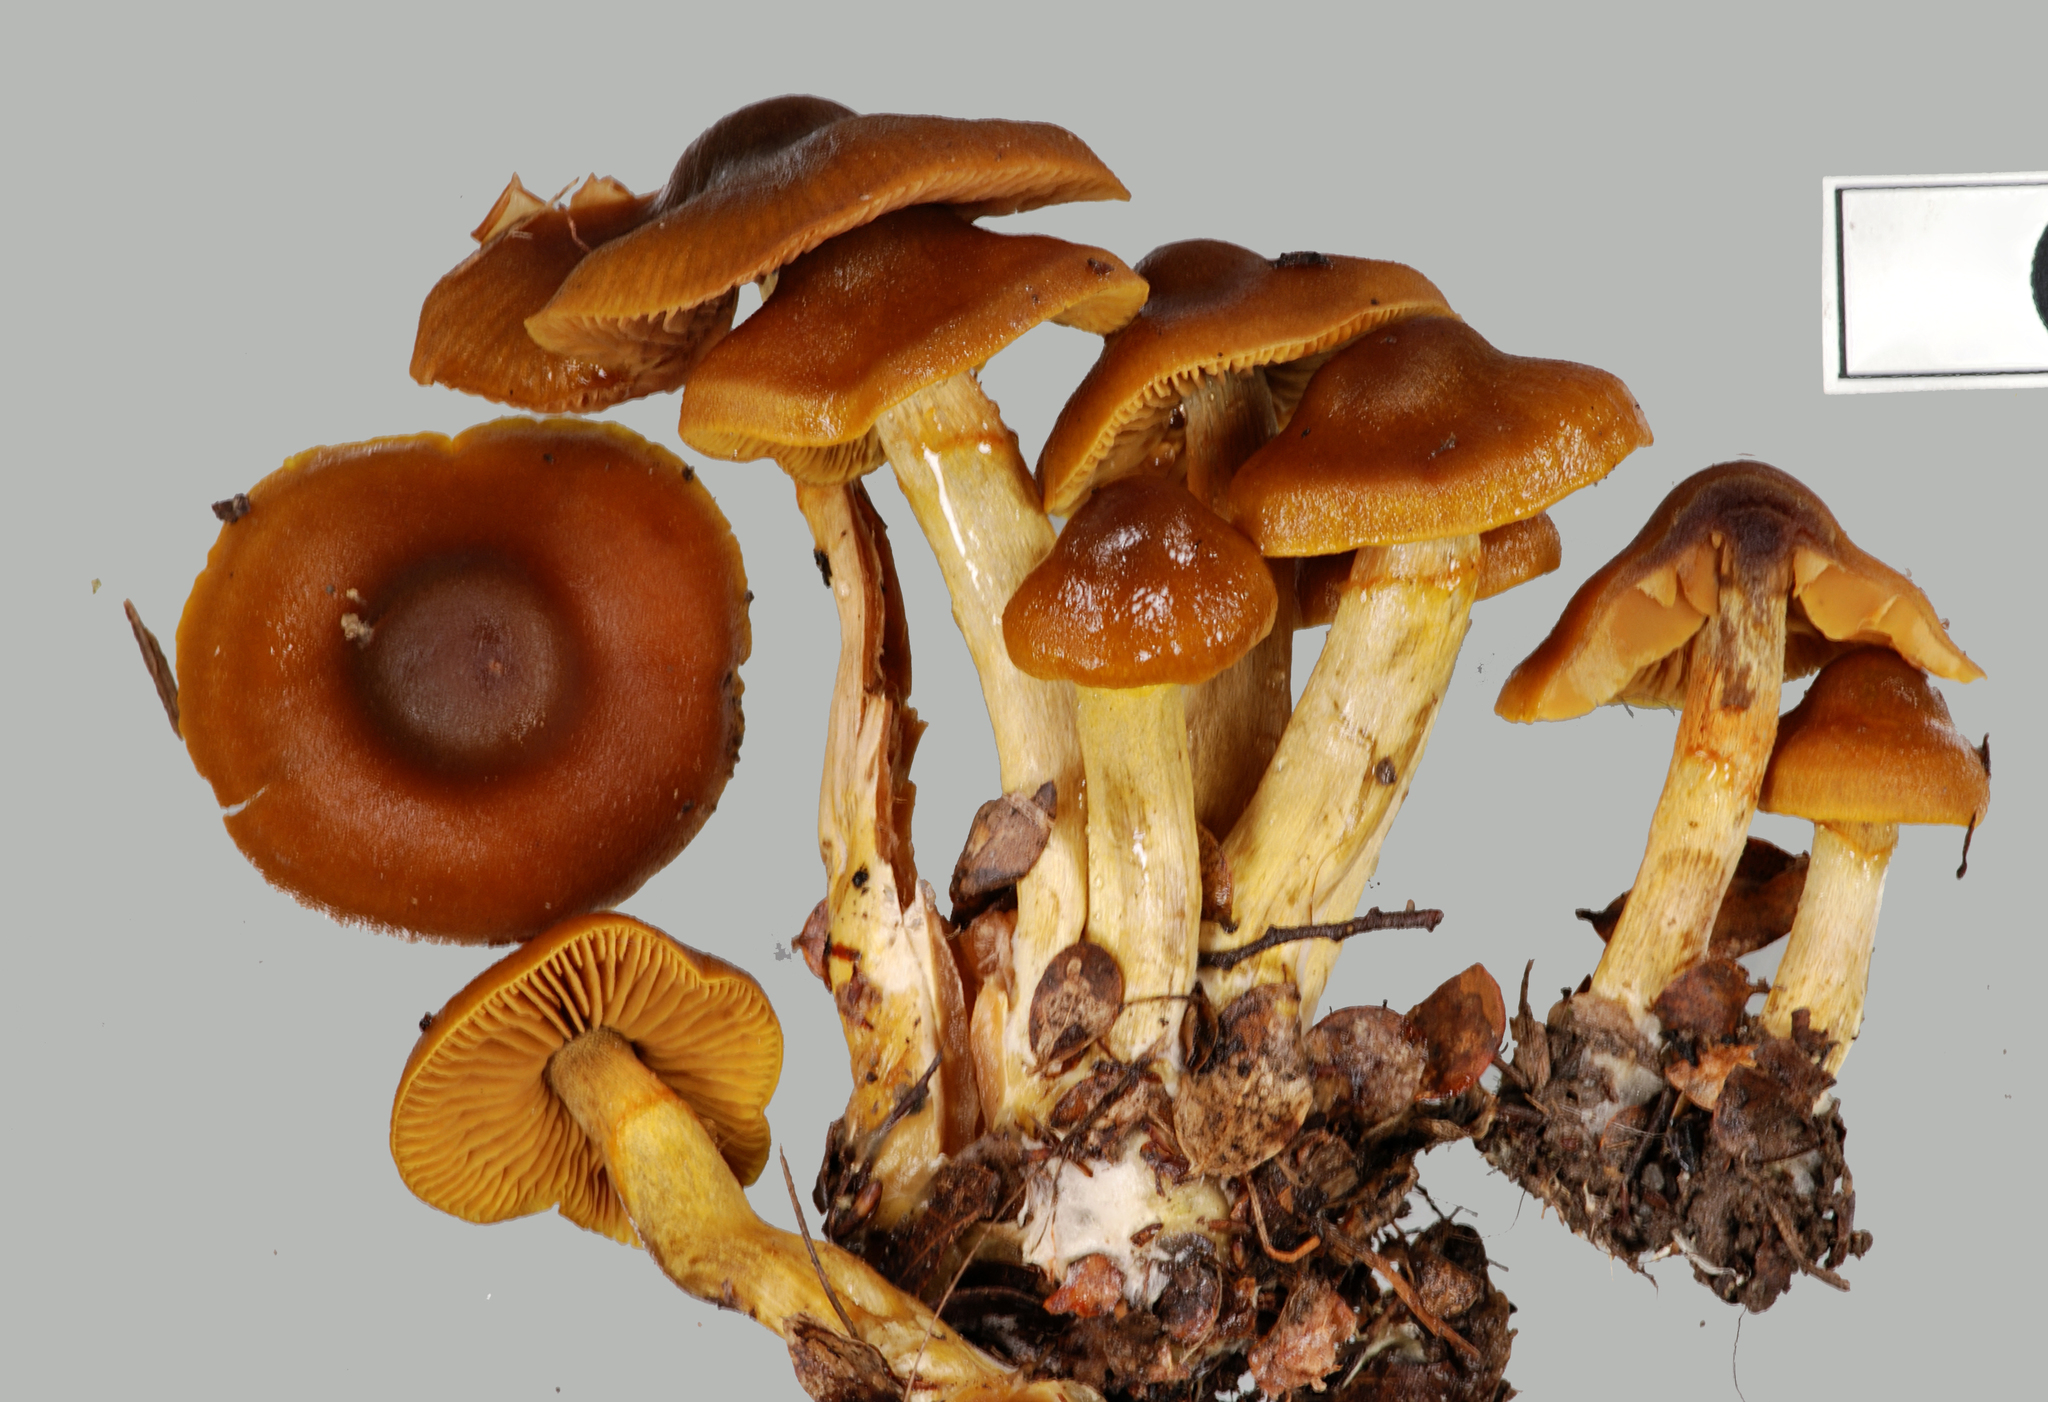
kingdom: Fungi
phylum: Basidiomycota
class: Agaricomycetes
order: Agaricales
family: Cortinariaceae
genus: Cortinarius
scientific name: Cortinarius paraxanthus
